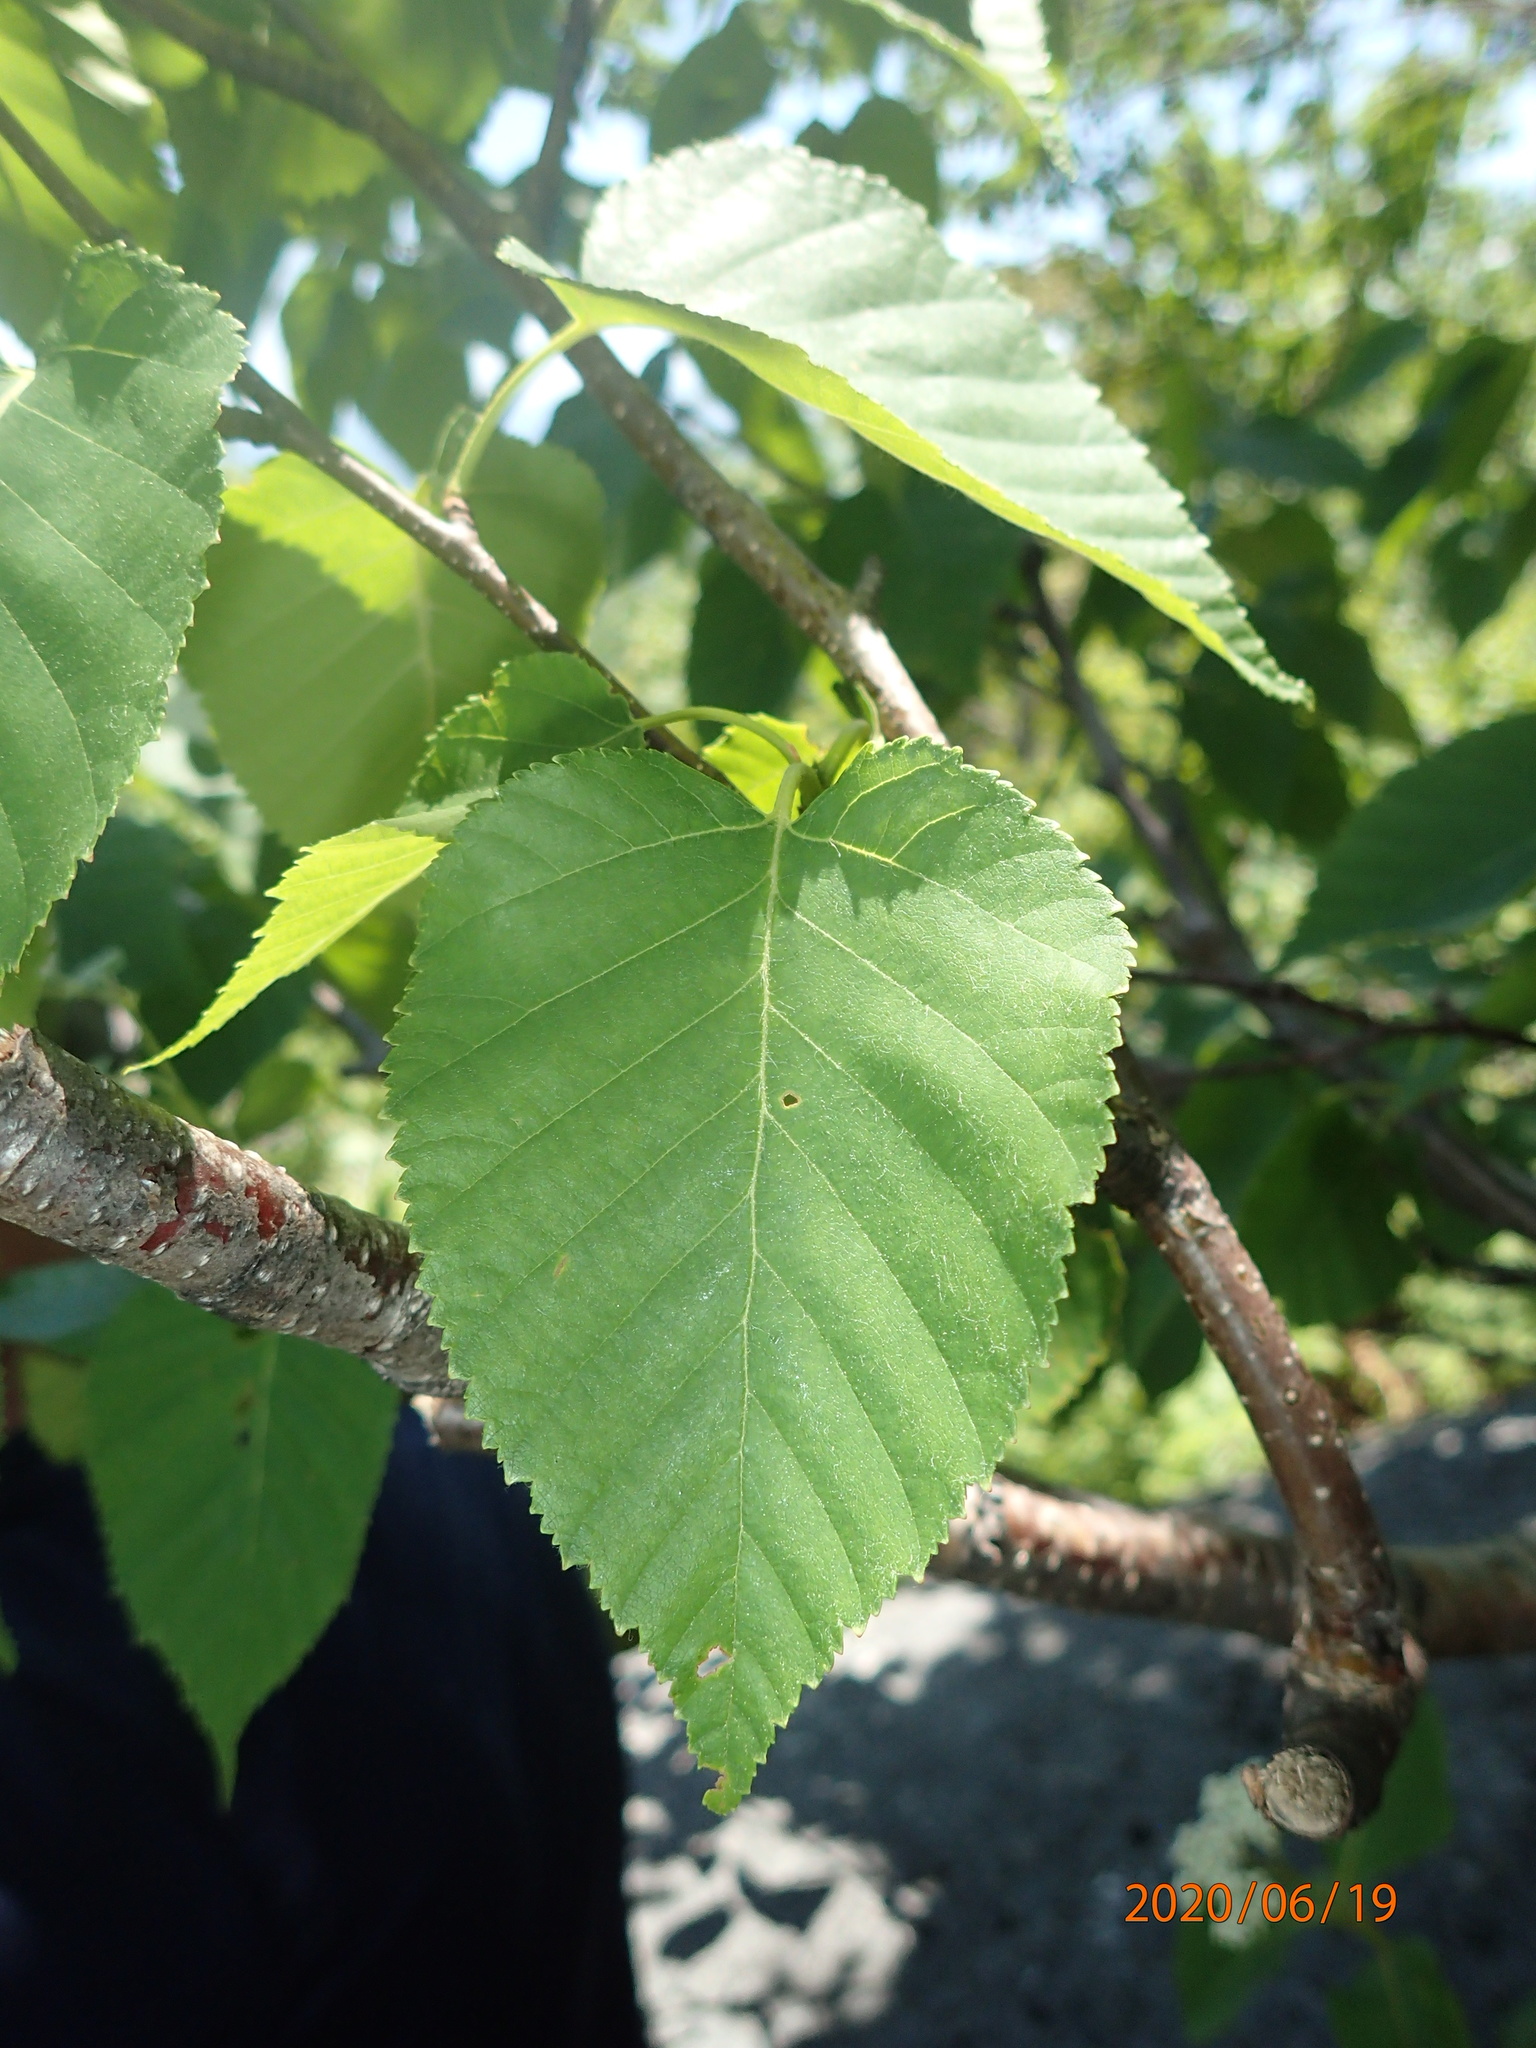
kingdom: Plantae
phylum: Tracheophyta
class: Magnoliopsida
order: Fagales
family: Betulaceae
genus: Betula
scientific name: Betula cordifolia
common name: Mountain white birch
